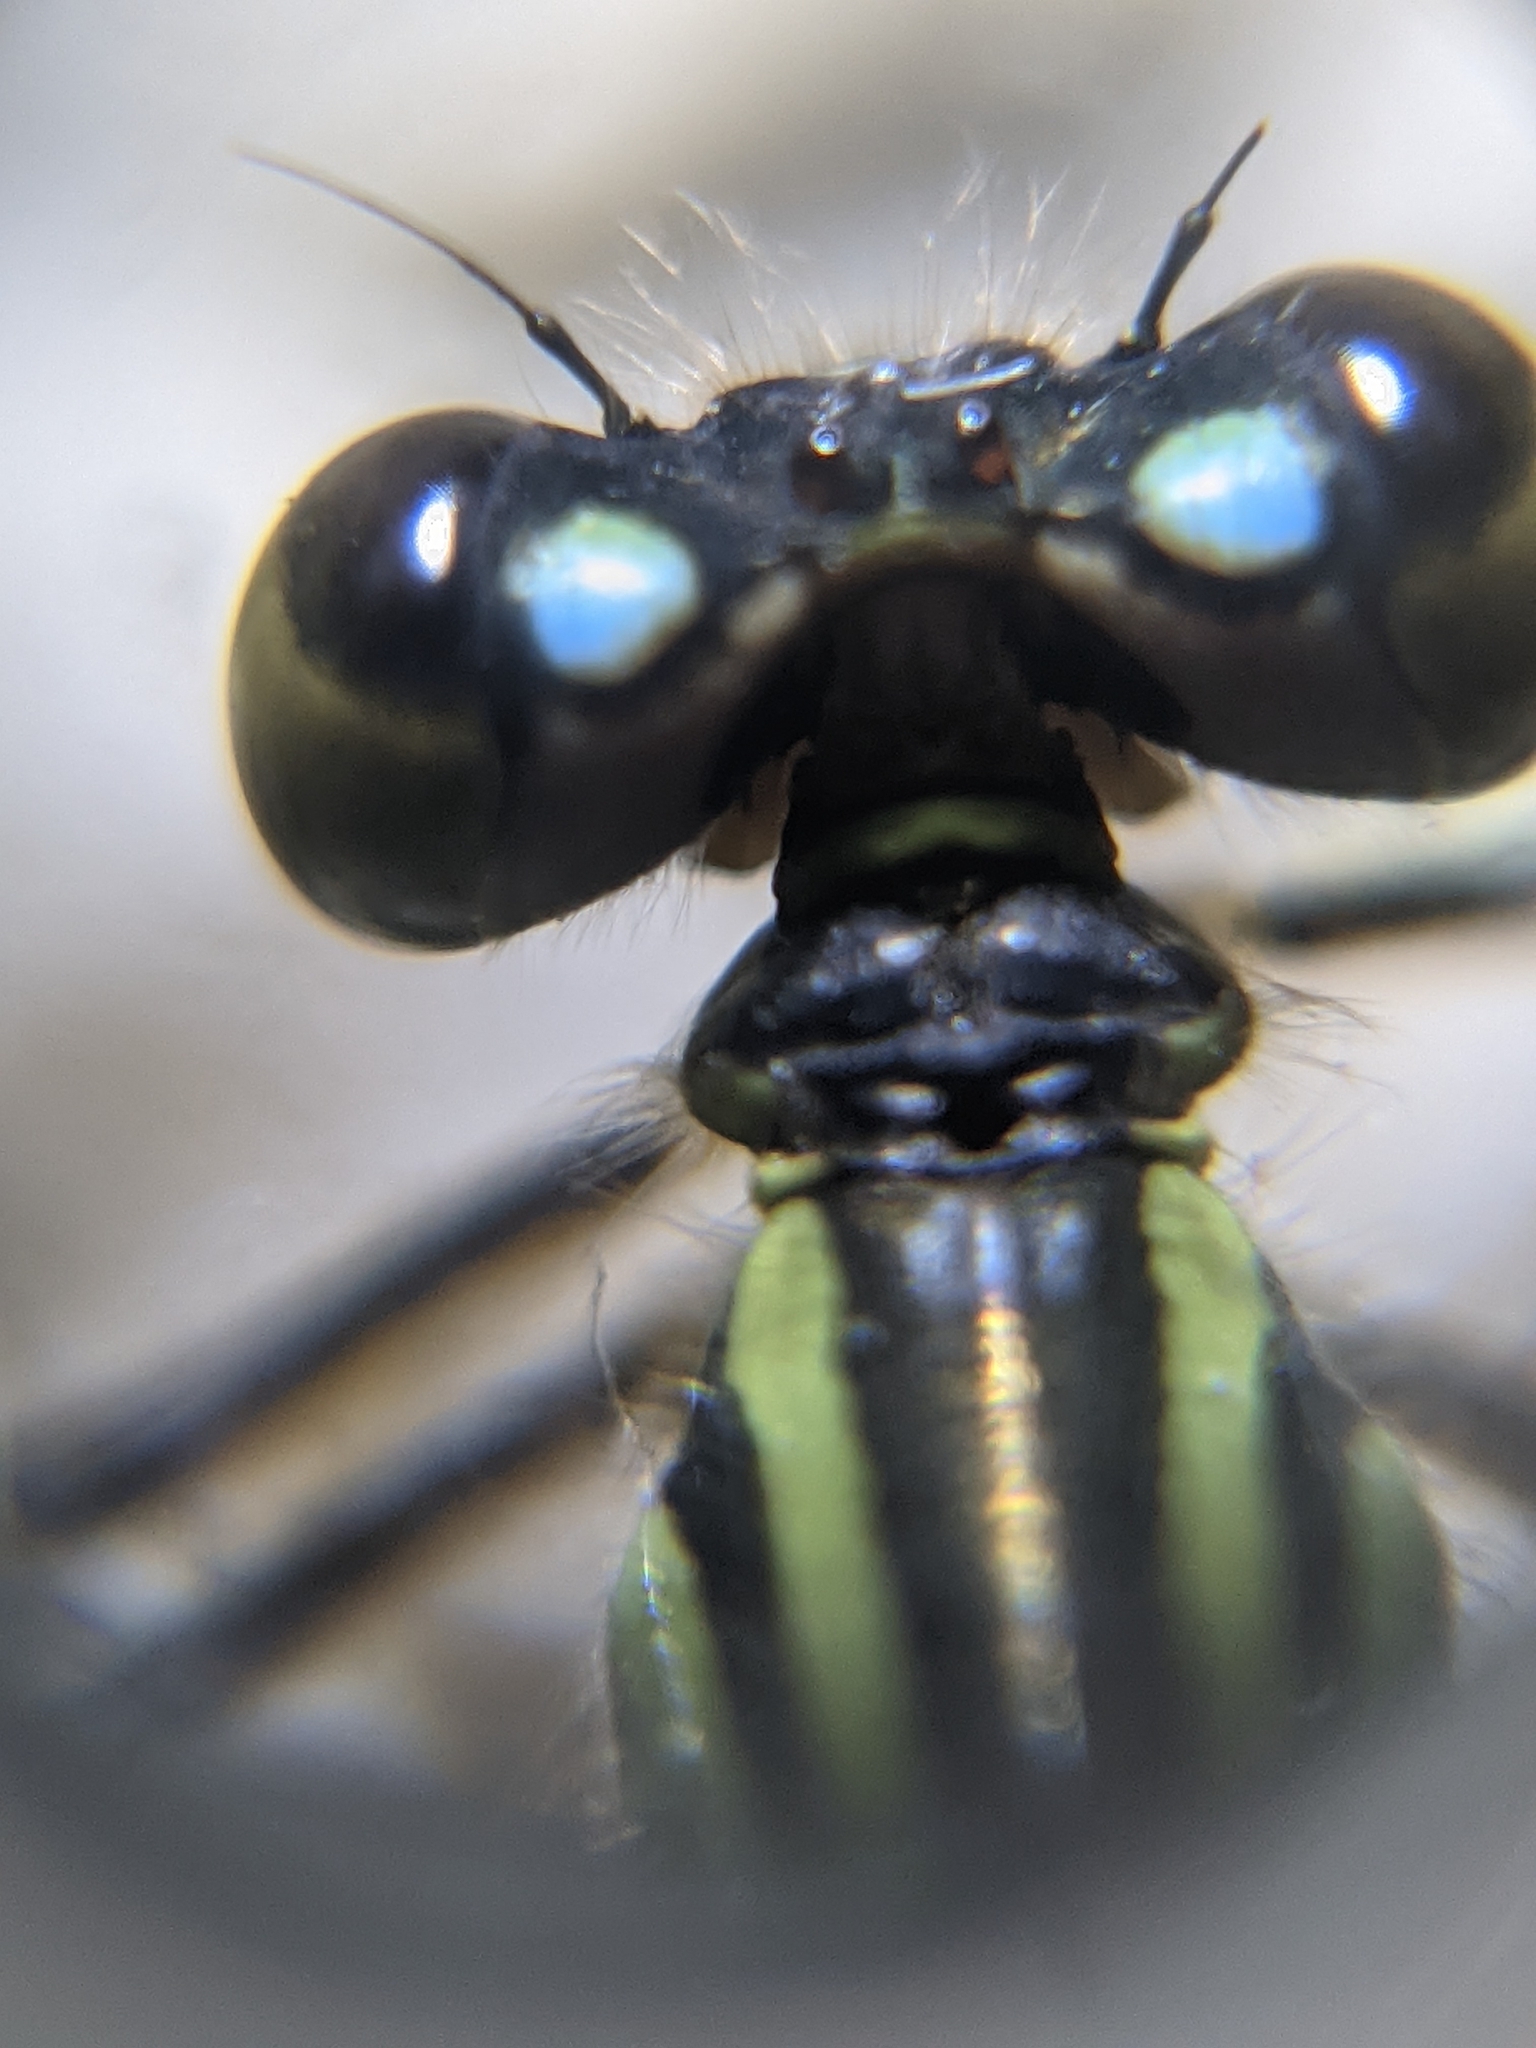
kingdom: Animalia
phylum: Arthropoda
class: Insecta
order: Odonata
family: Coenagrionidae
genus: Ischnura
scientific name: Ischnura elegans
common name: Blue-tailed damselfly
